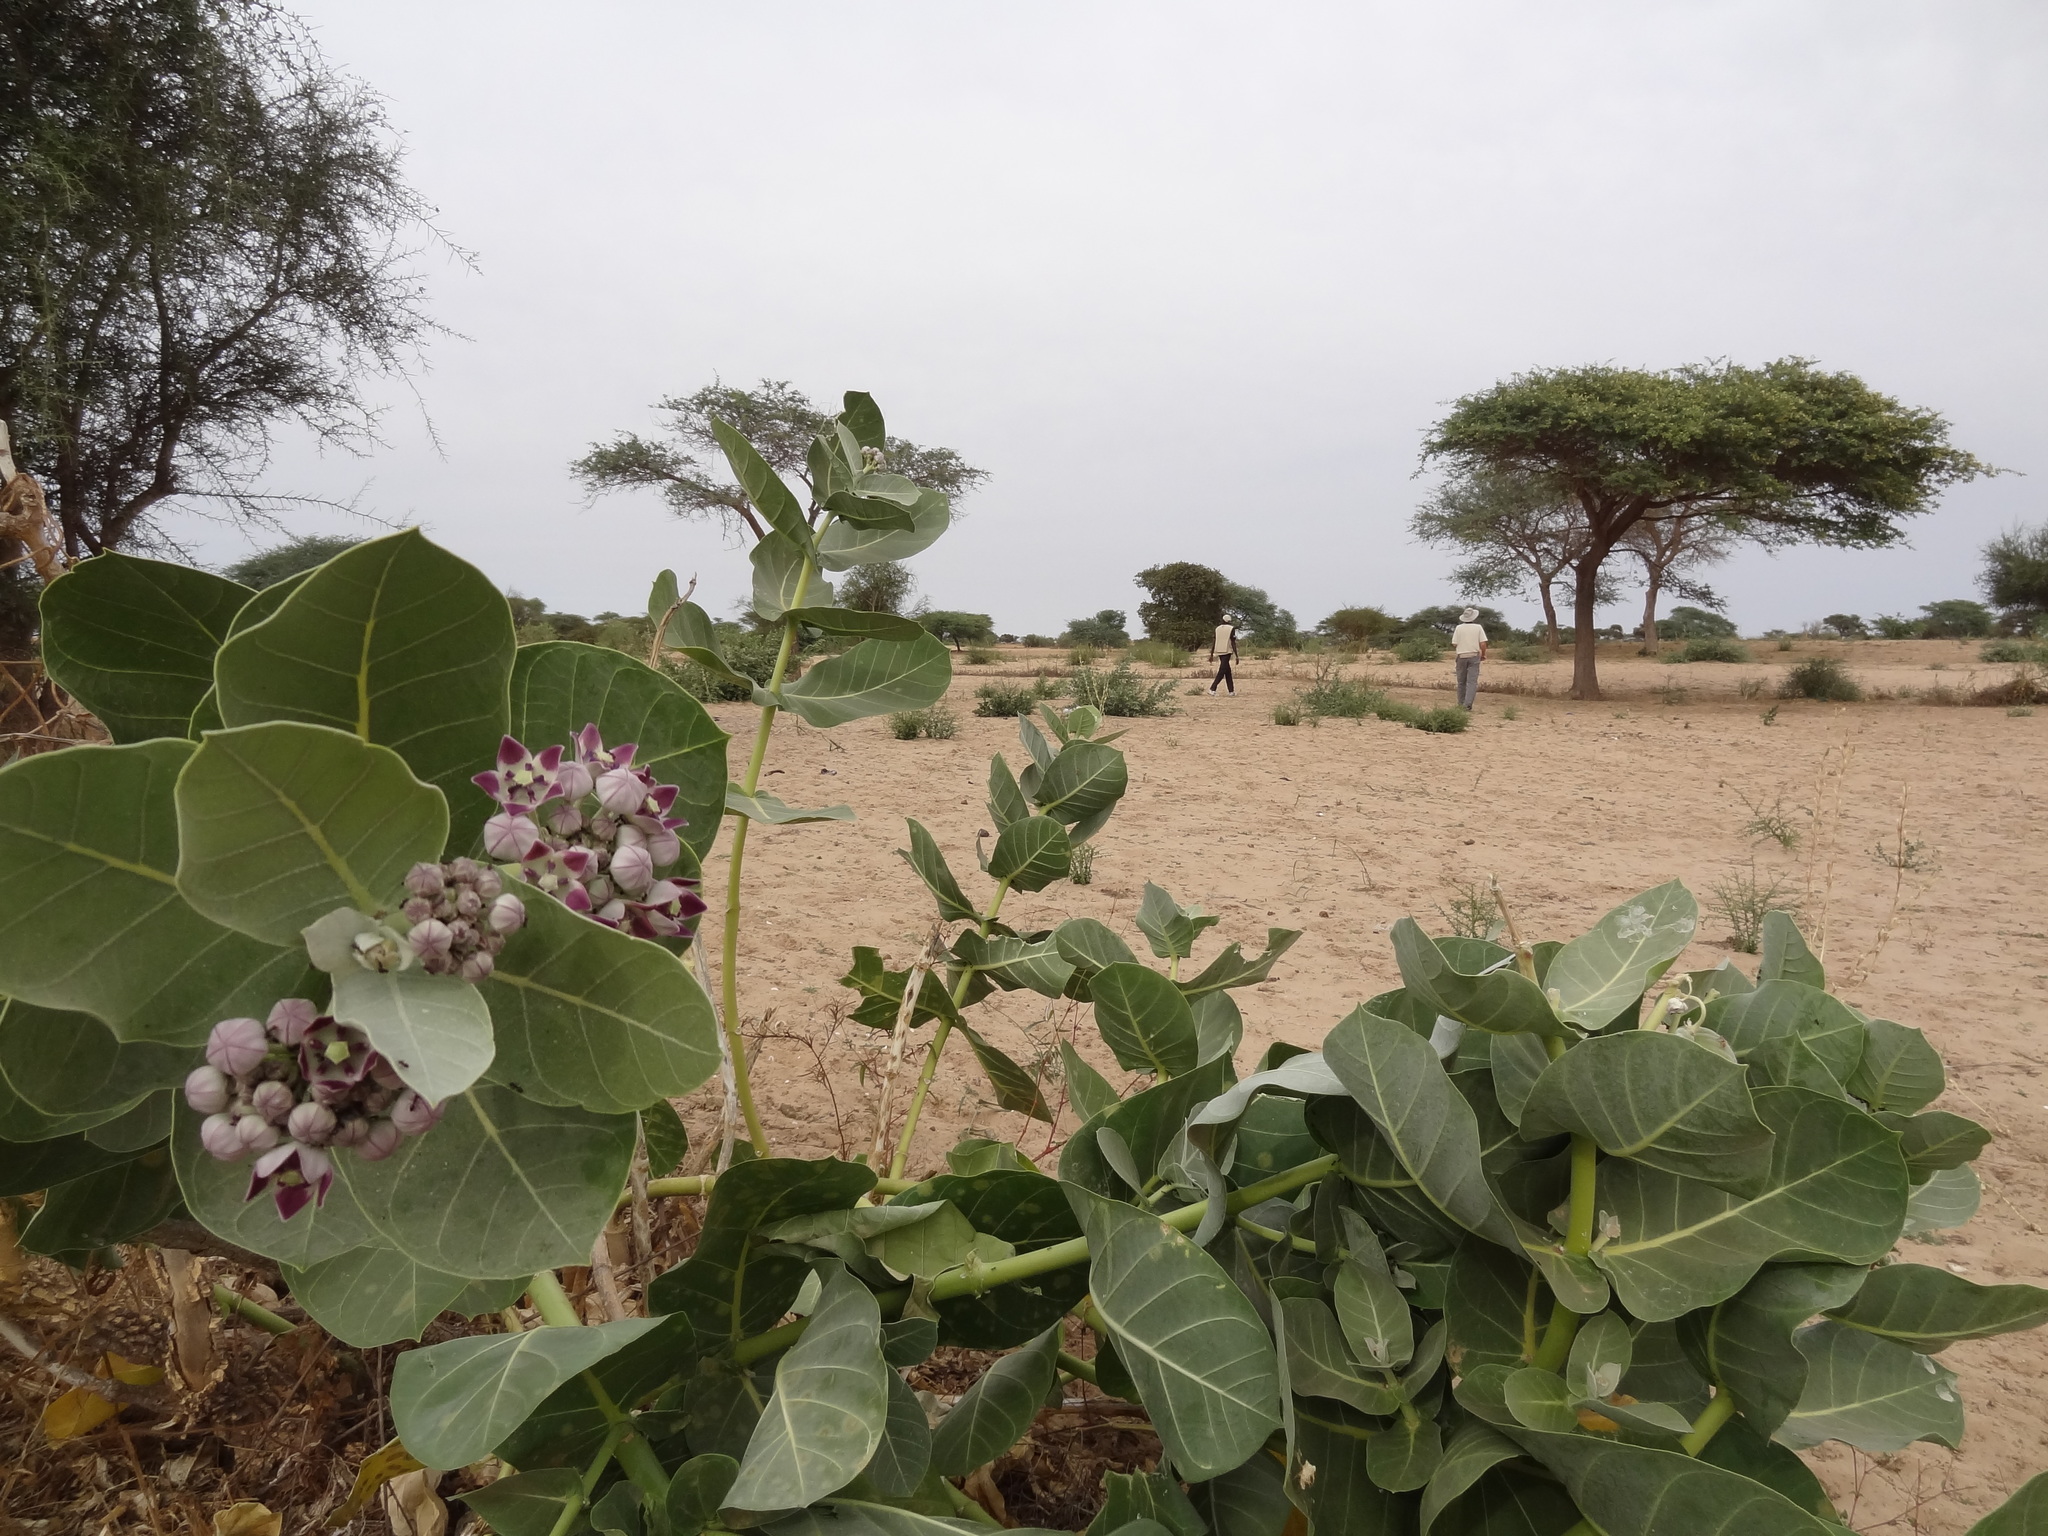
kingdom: Plantae
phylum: Tracheophyta
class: Magnoliopsida
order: Gentianales
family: Apocynaceae
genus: Calotropis
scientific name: Calotropis procera
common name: Roostertree
